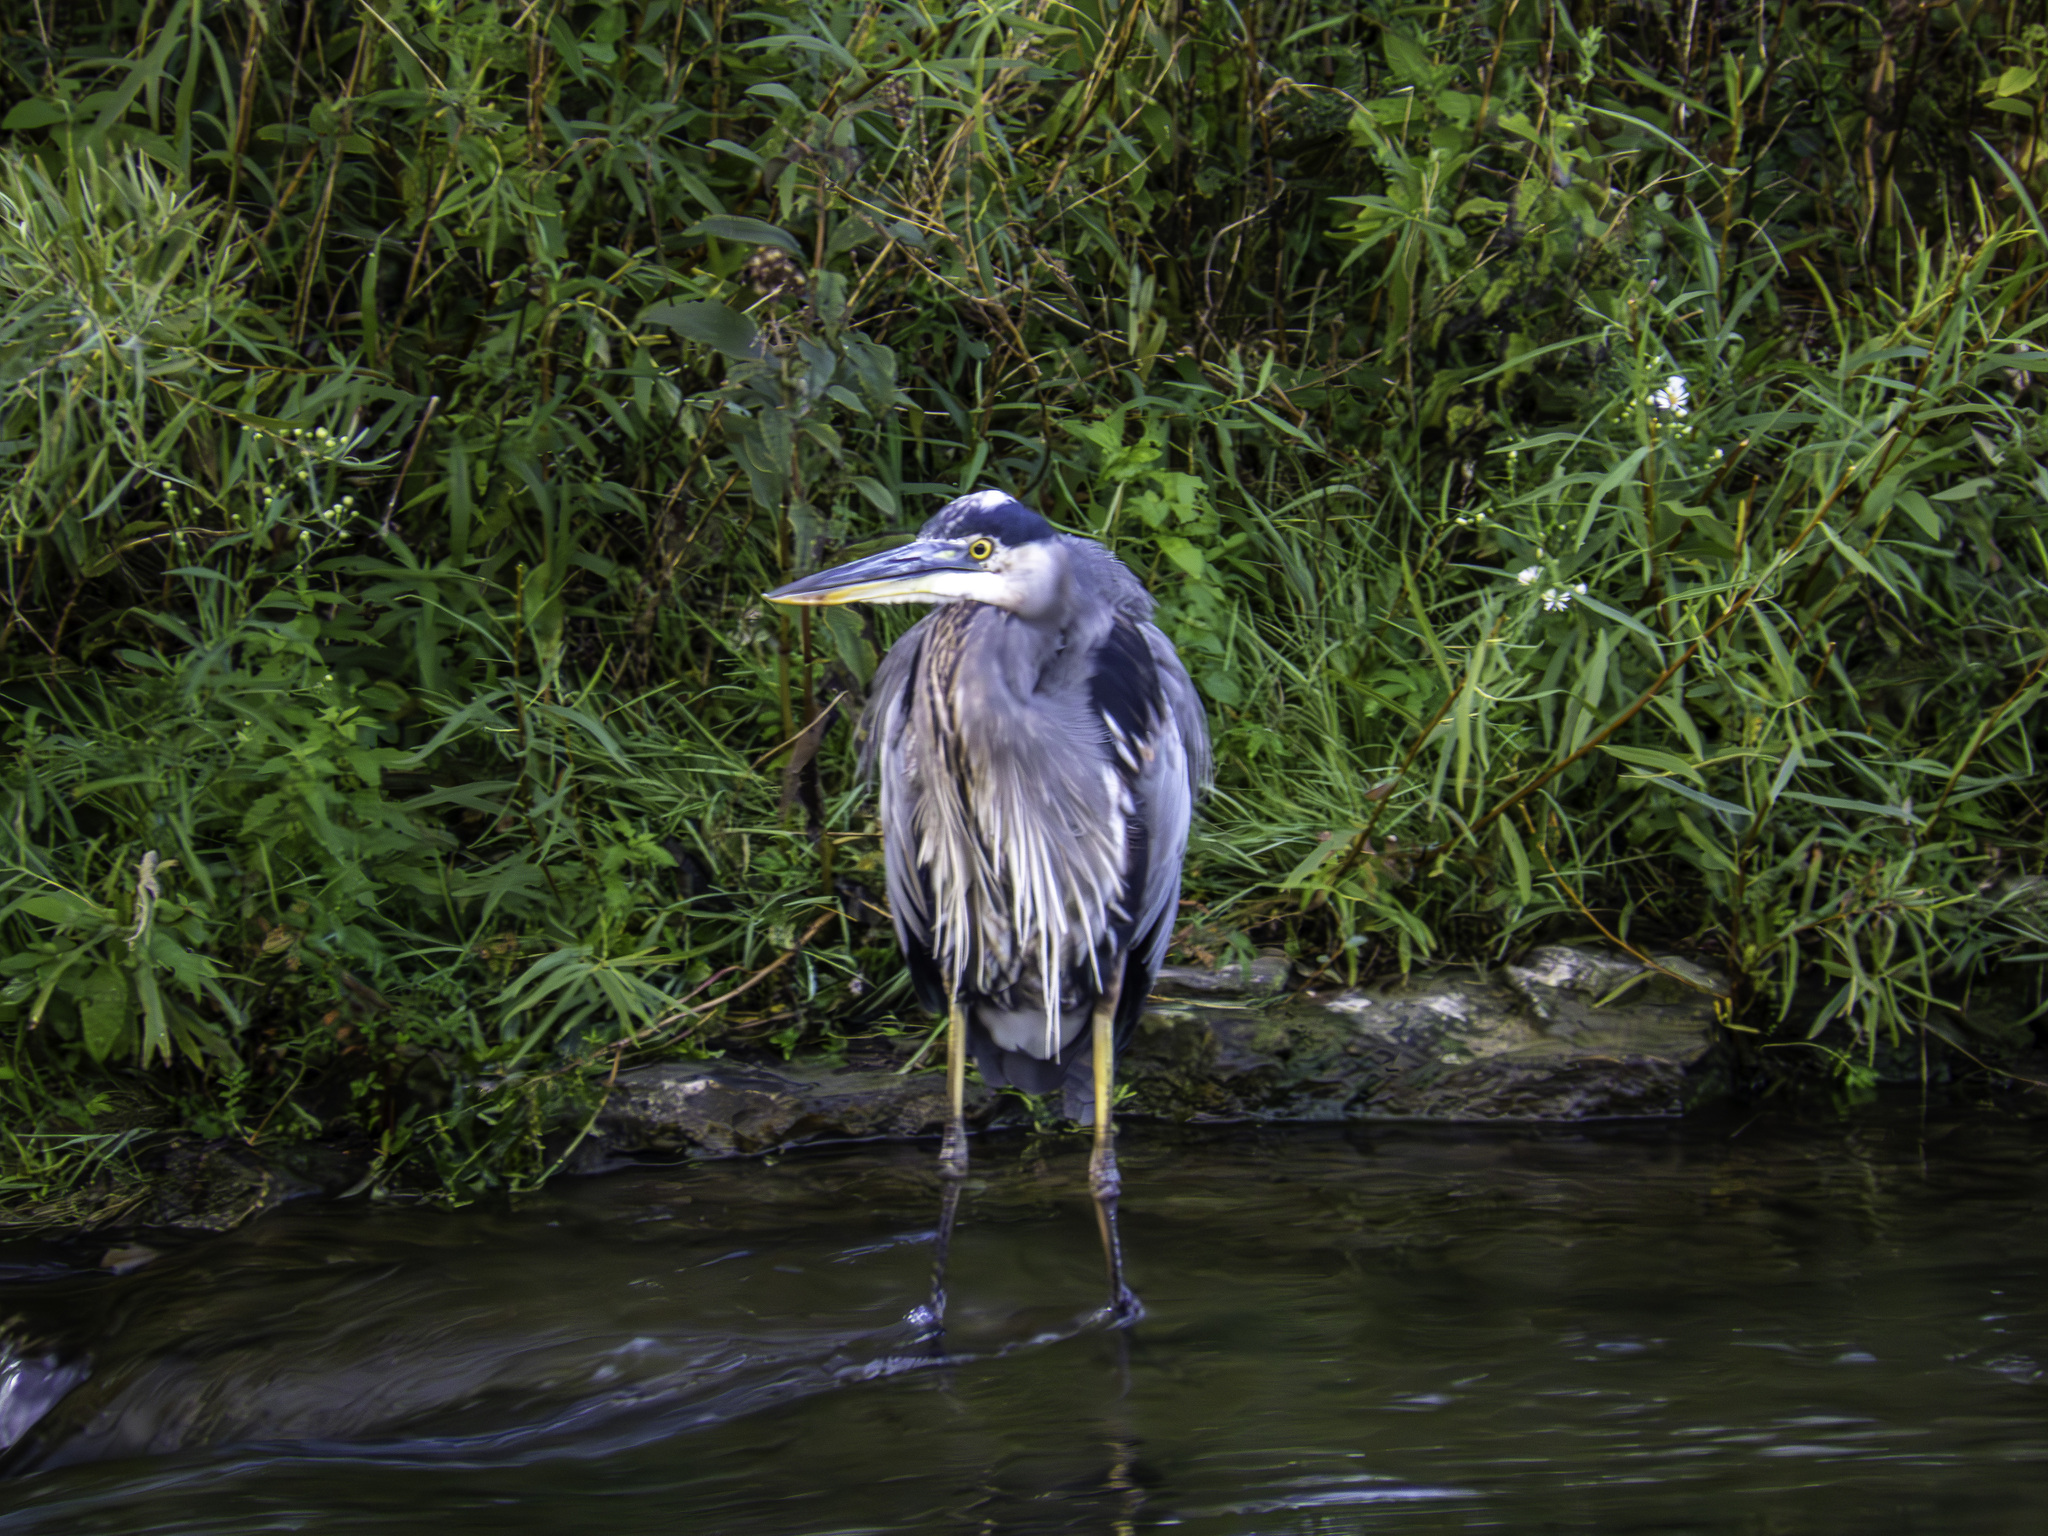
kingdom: Animalia
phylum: Chordata
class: Aves
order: Pelecaniformes
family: Ardeidae
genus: Ardea
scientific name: Ardea herodias
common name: Great blue heron
